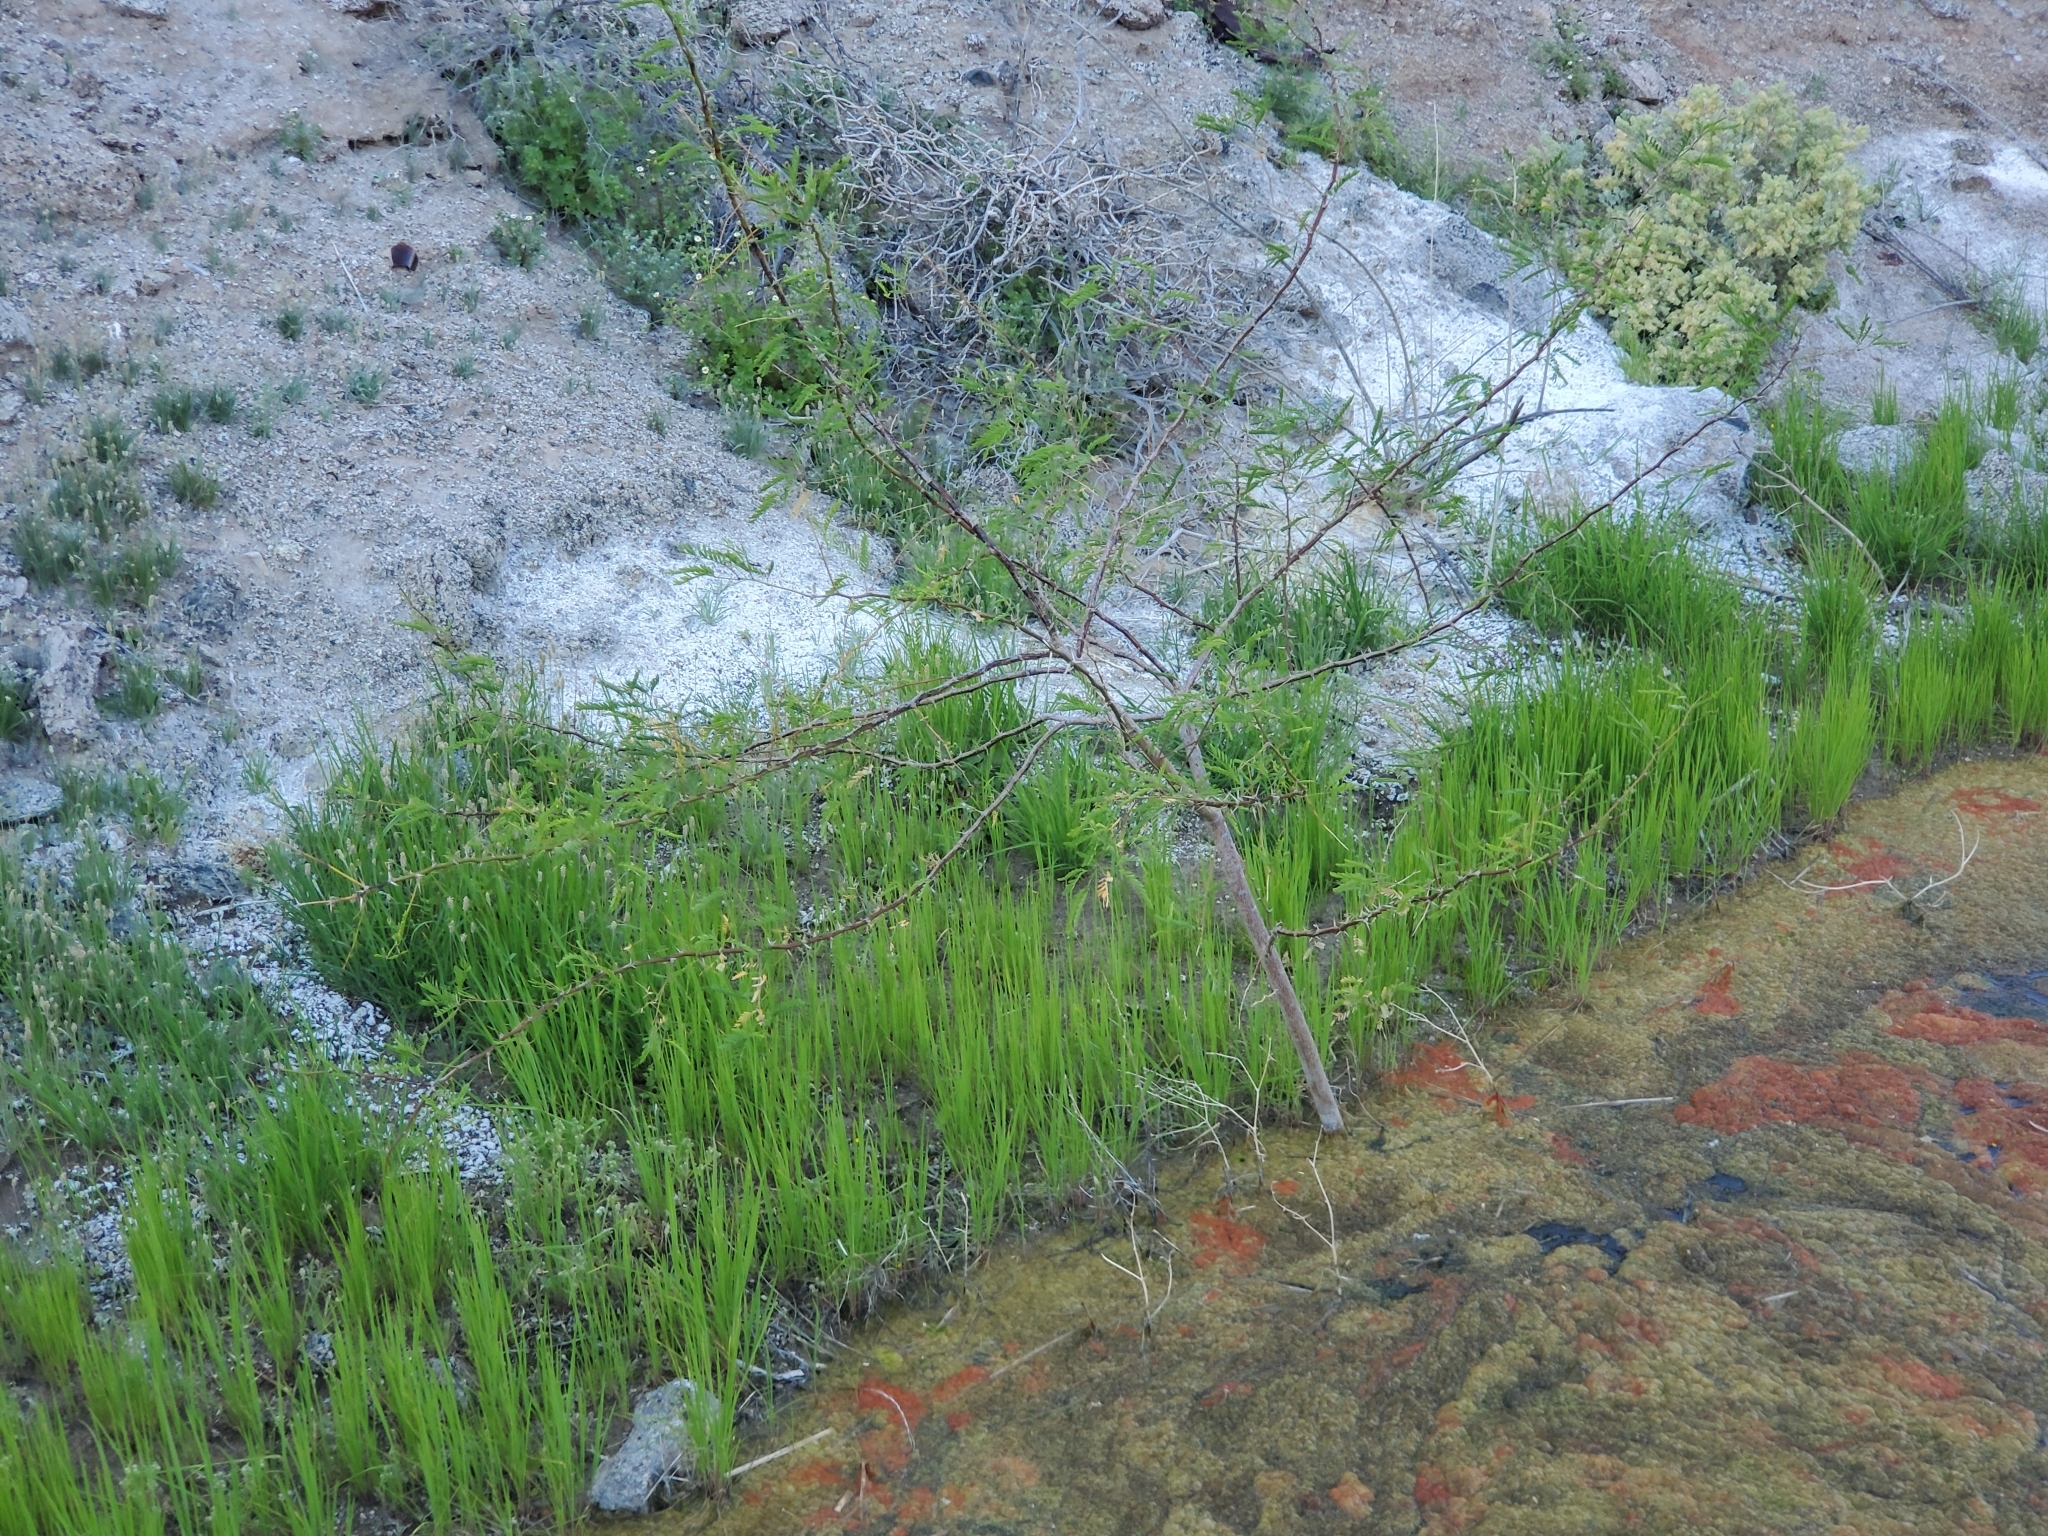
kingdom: Plantae
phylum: Tracheophyta
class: Magnoliopsida
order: Fabales
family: Fabaceae
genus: Prosopis
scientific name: Prosopis pubescens
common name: Screw-bean
